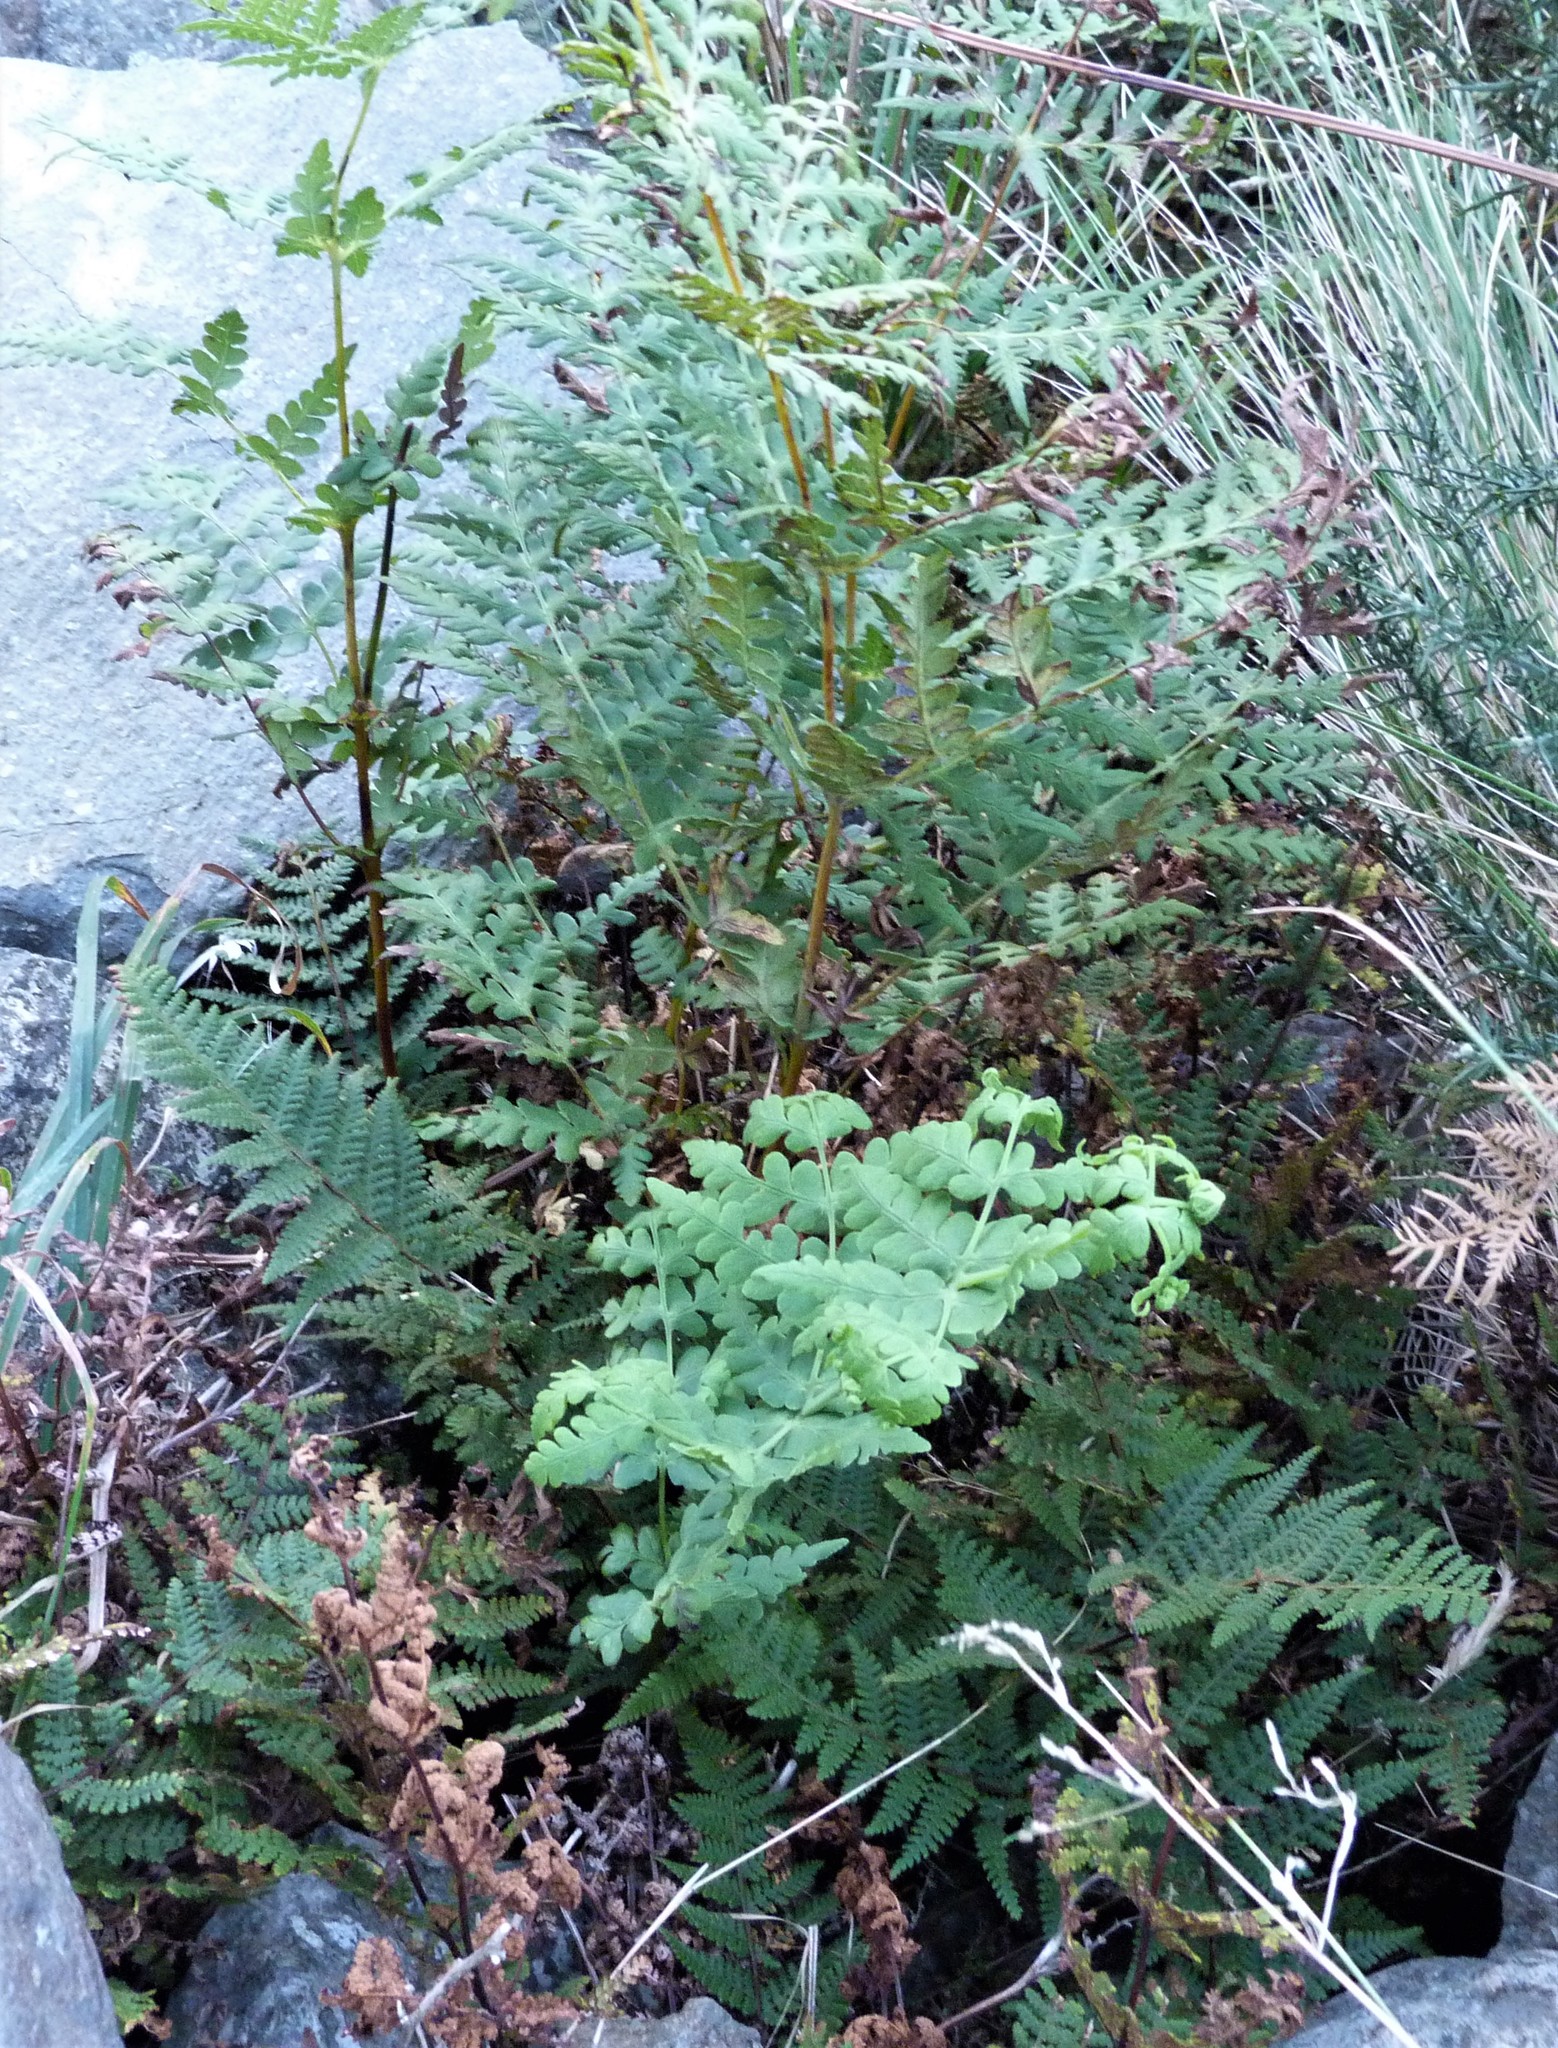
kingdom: Plantae
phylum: Tracheophyta
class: Polypodiopsida
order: Polypodiales
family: Dennstaedtiaceae
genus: Histiopteris
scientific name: Histiopteris incisa
